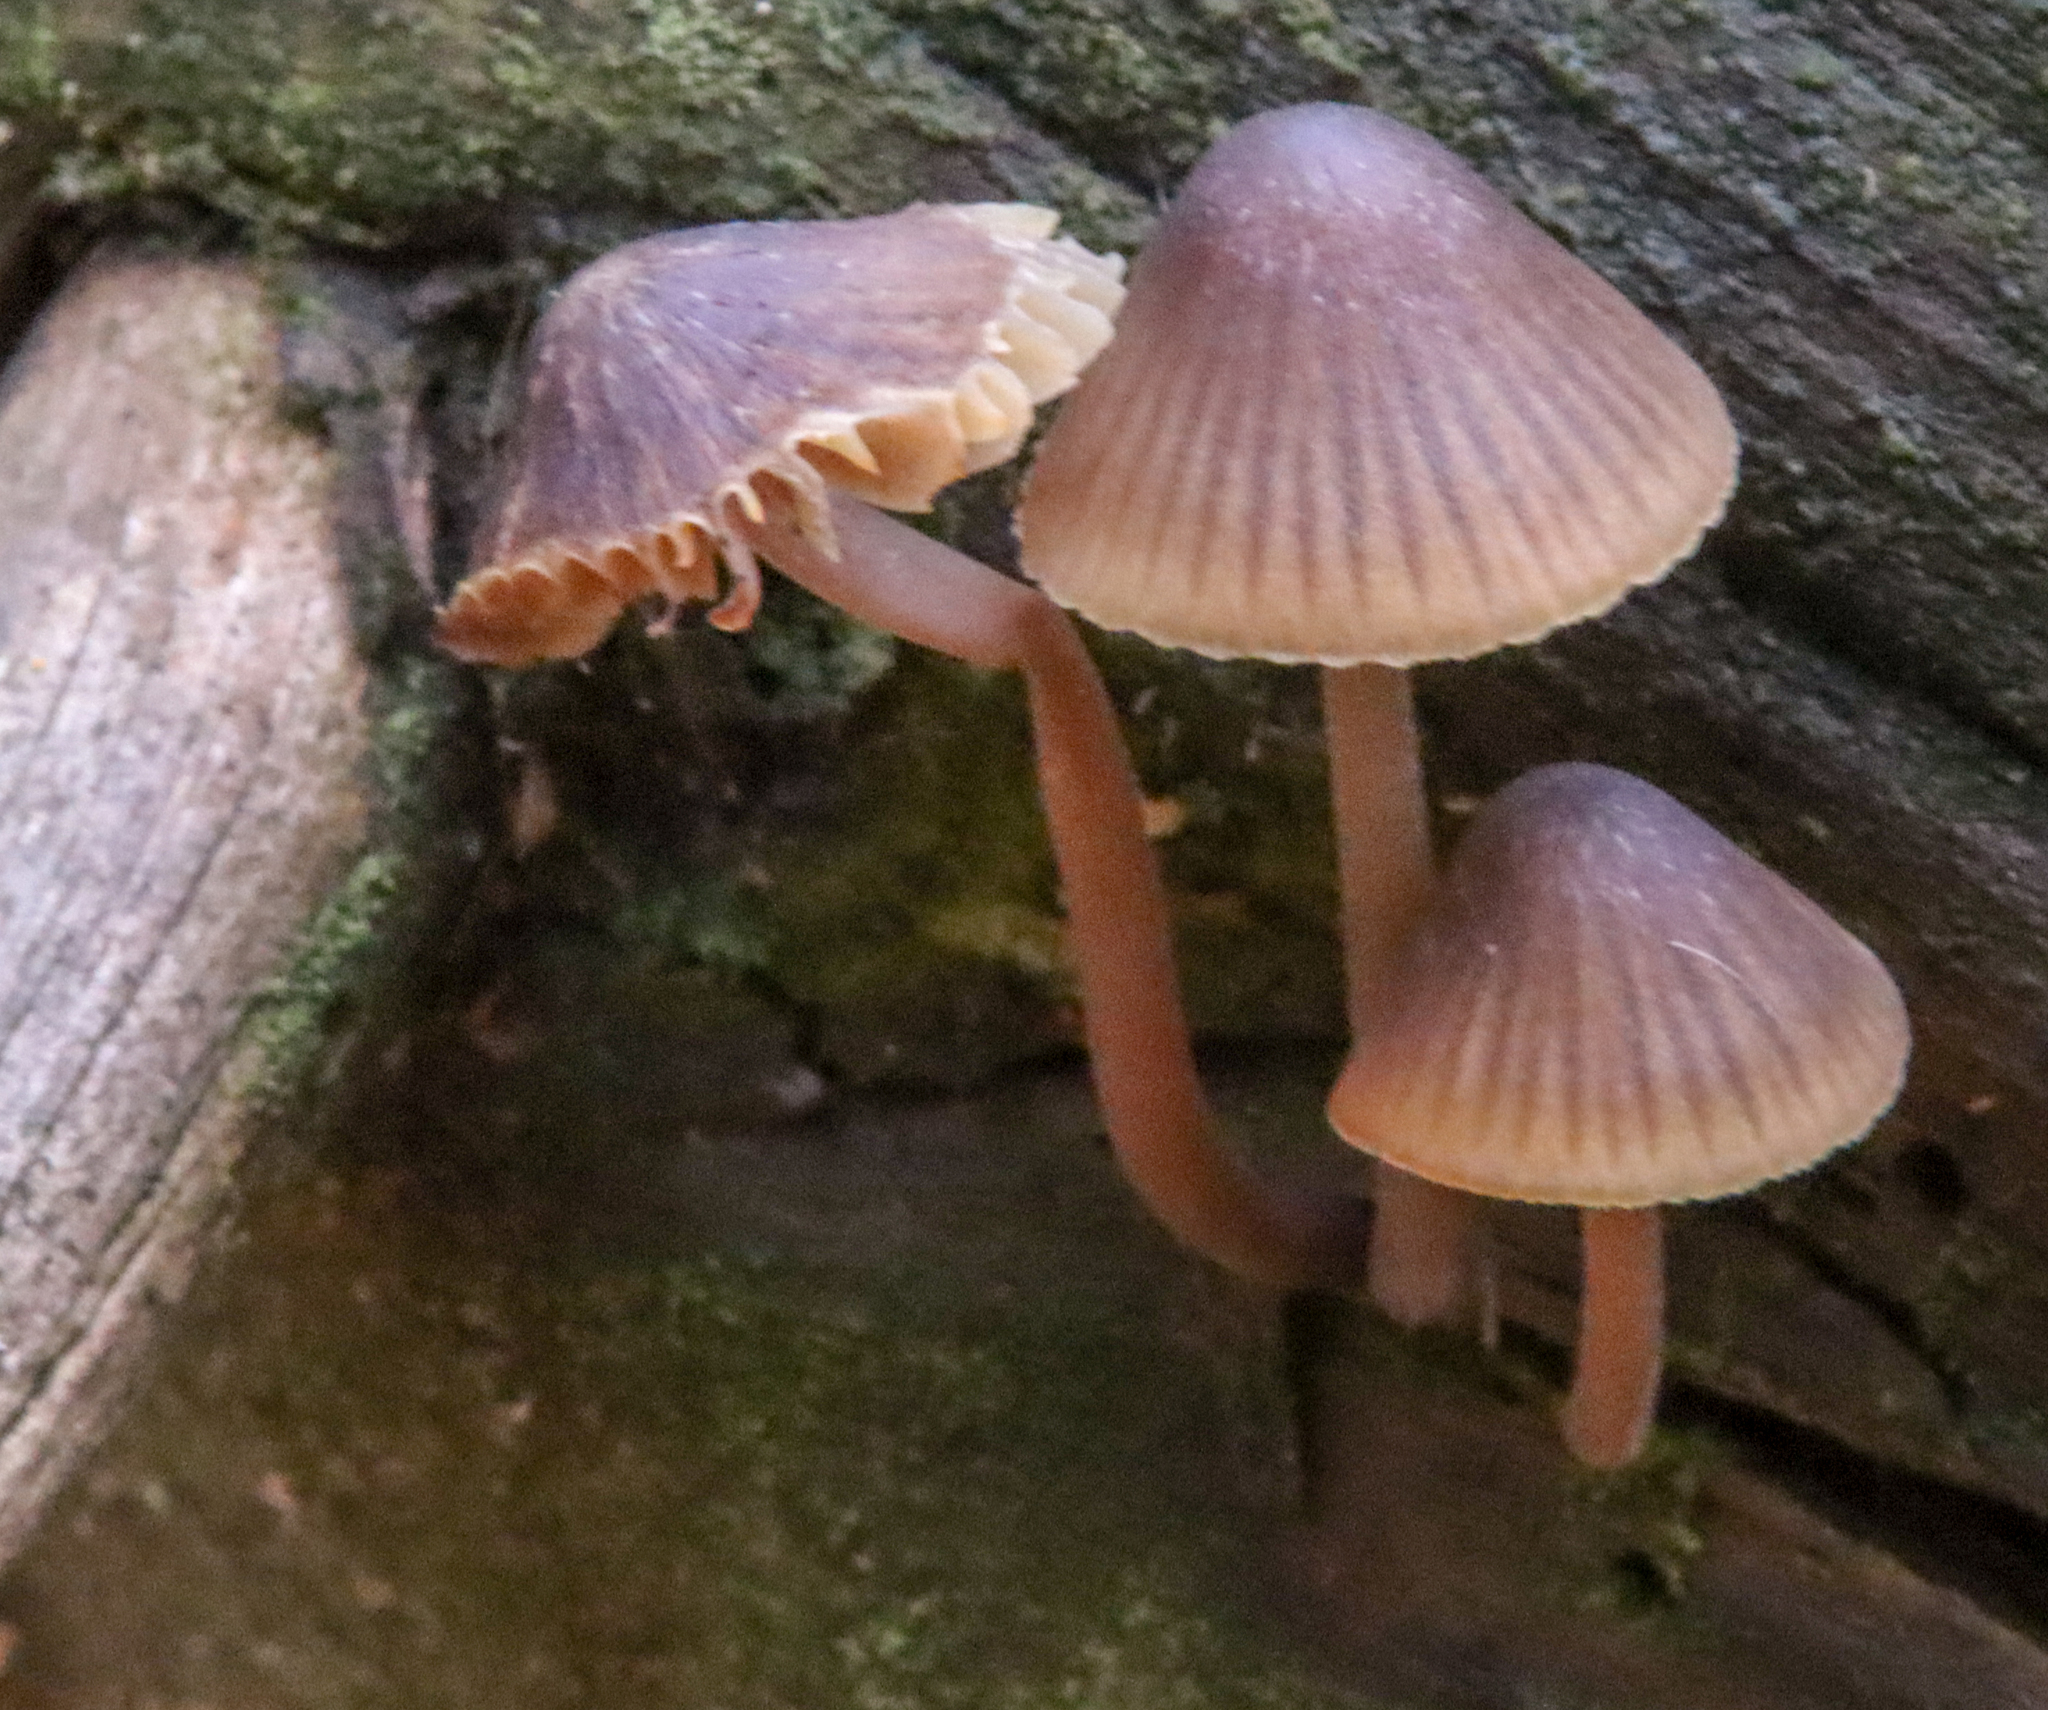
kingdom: Fungi
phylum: Basidiomycota
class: Agaricomycetes
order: Agaricales
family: Mycenaceae
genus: Mycena
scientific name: Mycena haematopus
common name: Burgundydrop bonnet
